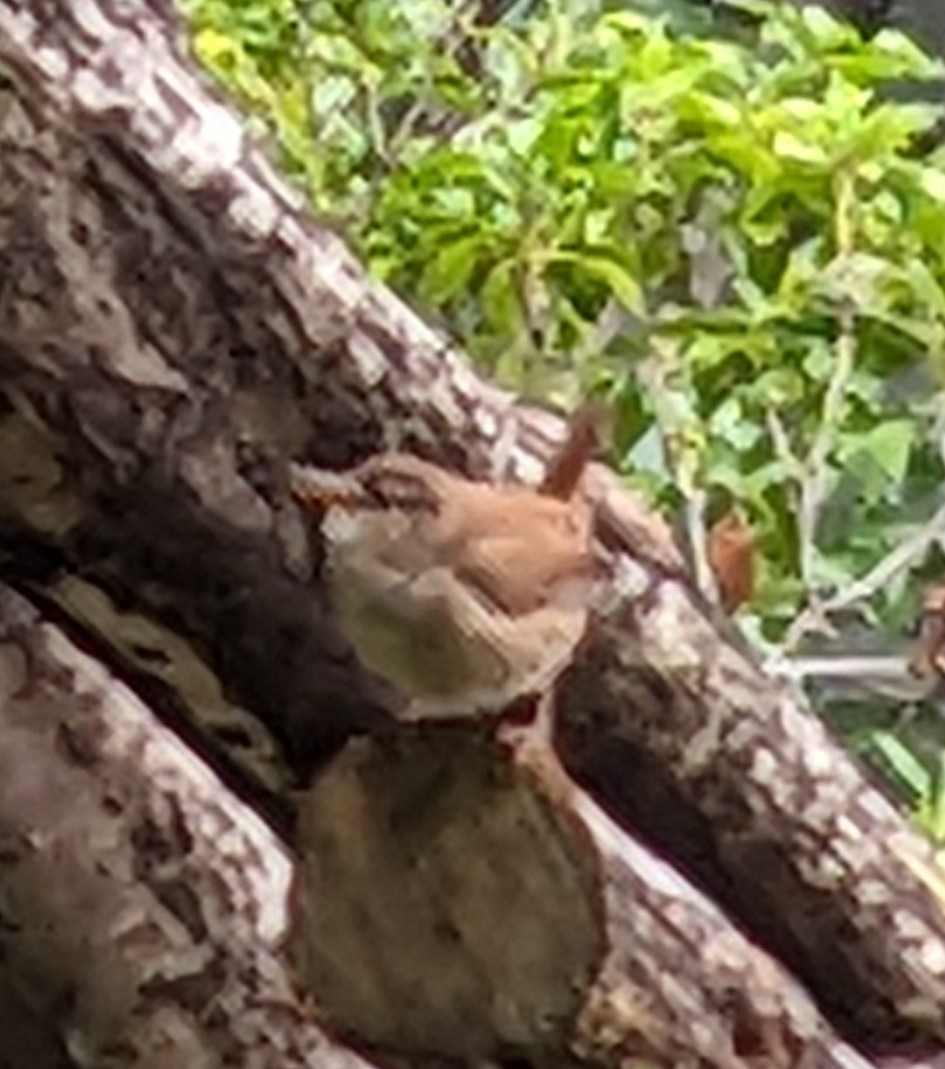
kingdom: Animalia
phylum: Chordata
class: Aves
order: Passeriformes
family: Troglodytidae
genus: Troglodytes
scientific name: Troglodytes troglodytes
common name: Eurasian wren
